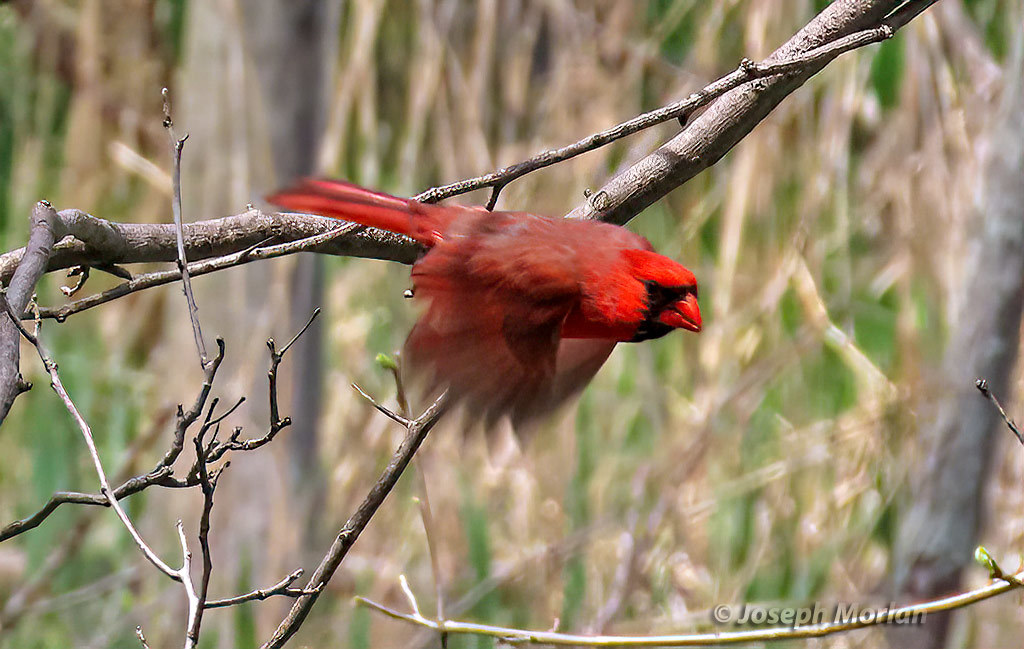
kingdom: Animalia
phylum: Chordata
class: Aves
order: Passeriformes
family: Cardinalidae
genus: Cardinalis
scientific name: Cardinalis cardinalis
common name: Northern cardinal
